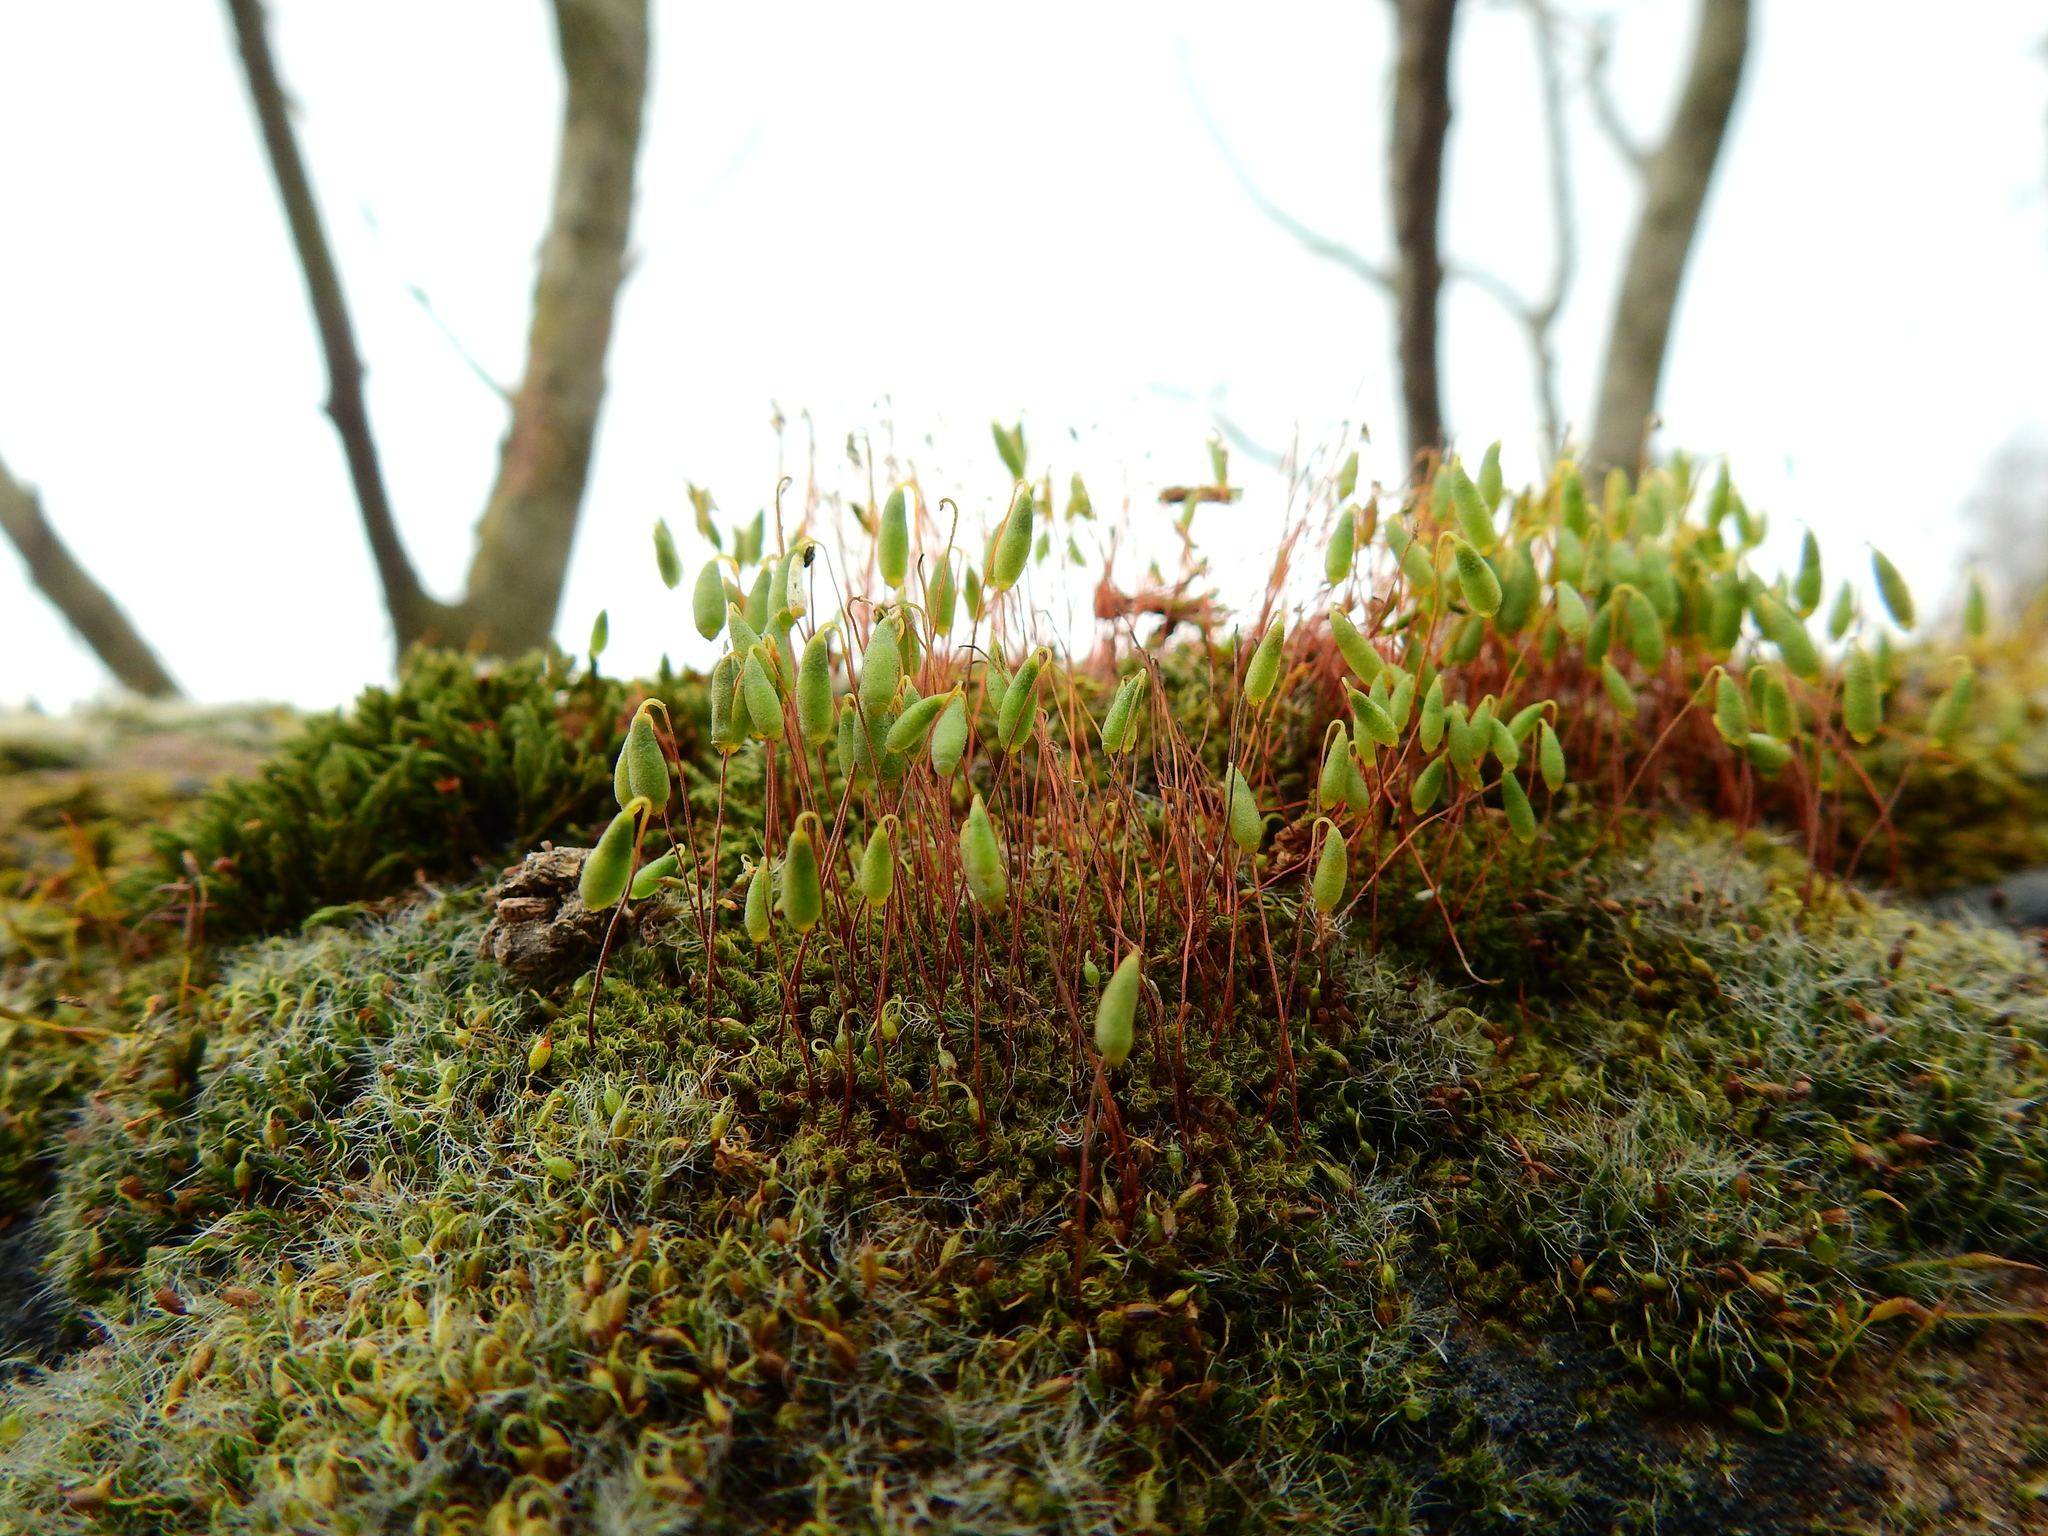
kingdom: Plantae
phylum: Bryophyta
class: Bryopsida
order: Bryales
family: Bryaceae
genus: Rosulabryum
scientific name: Rosulabryum capillare
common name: Capillary thread-moss
